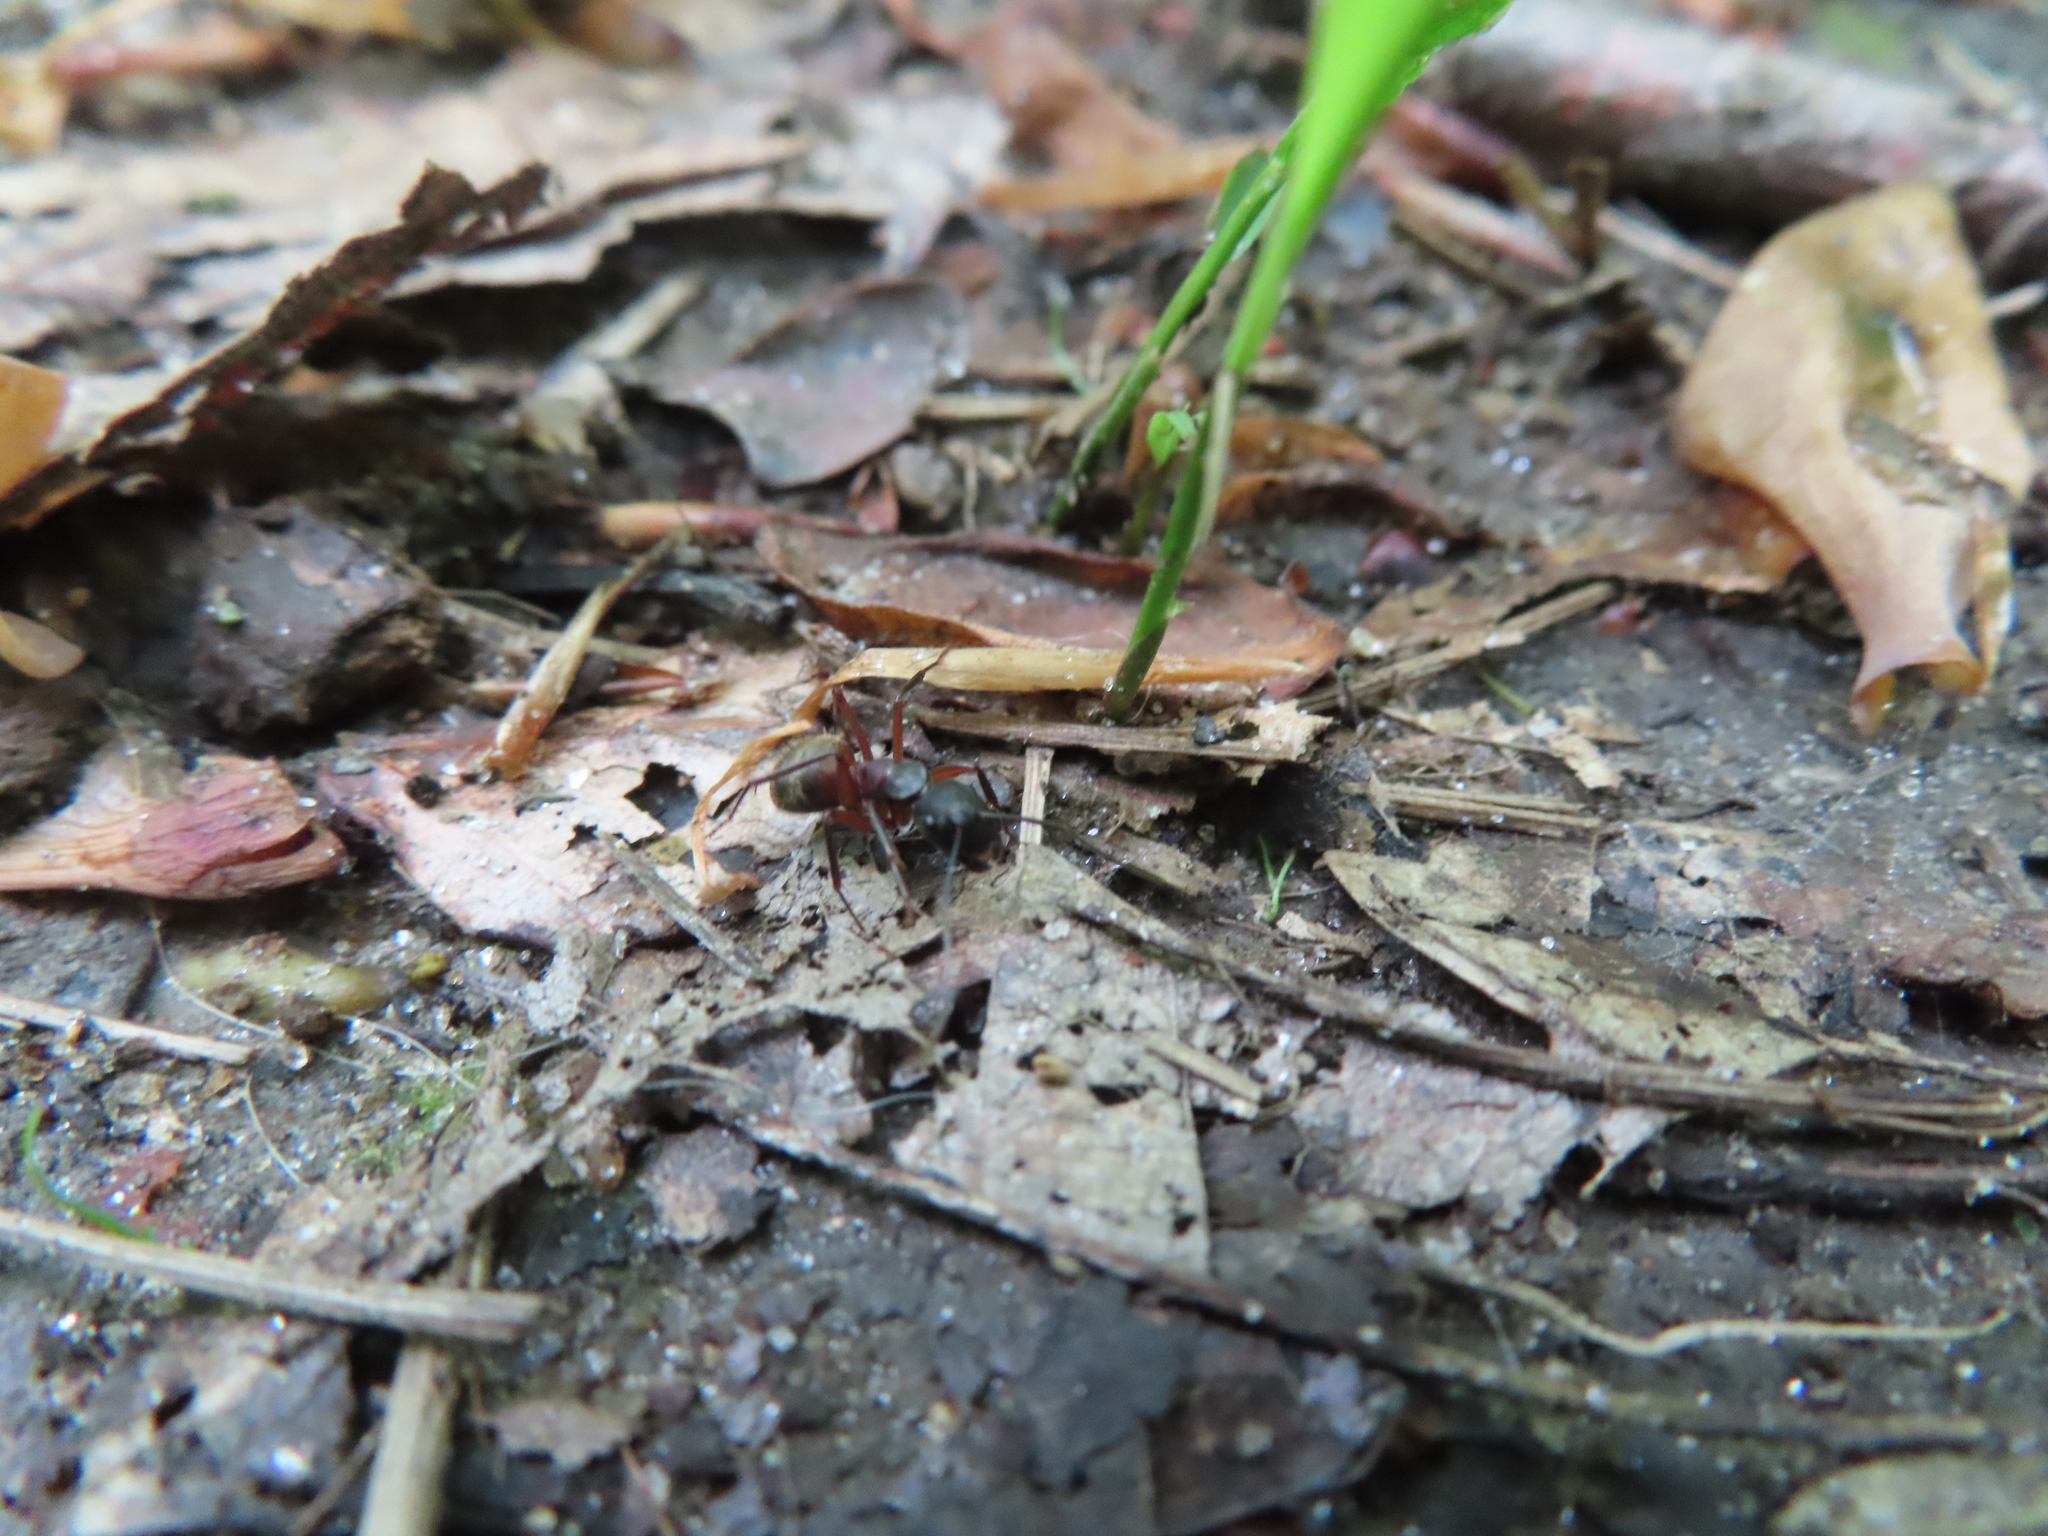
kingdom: Animalia
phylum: Arthropoda
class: Insecta
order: Hymenoptera
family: Formicidae
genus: Camponotus
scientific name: Camponotus chromaiodes
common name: Red carpenter ant
